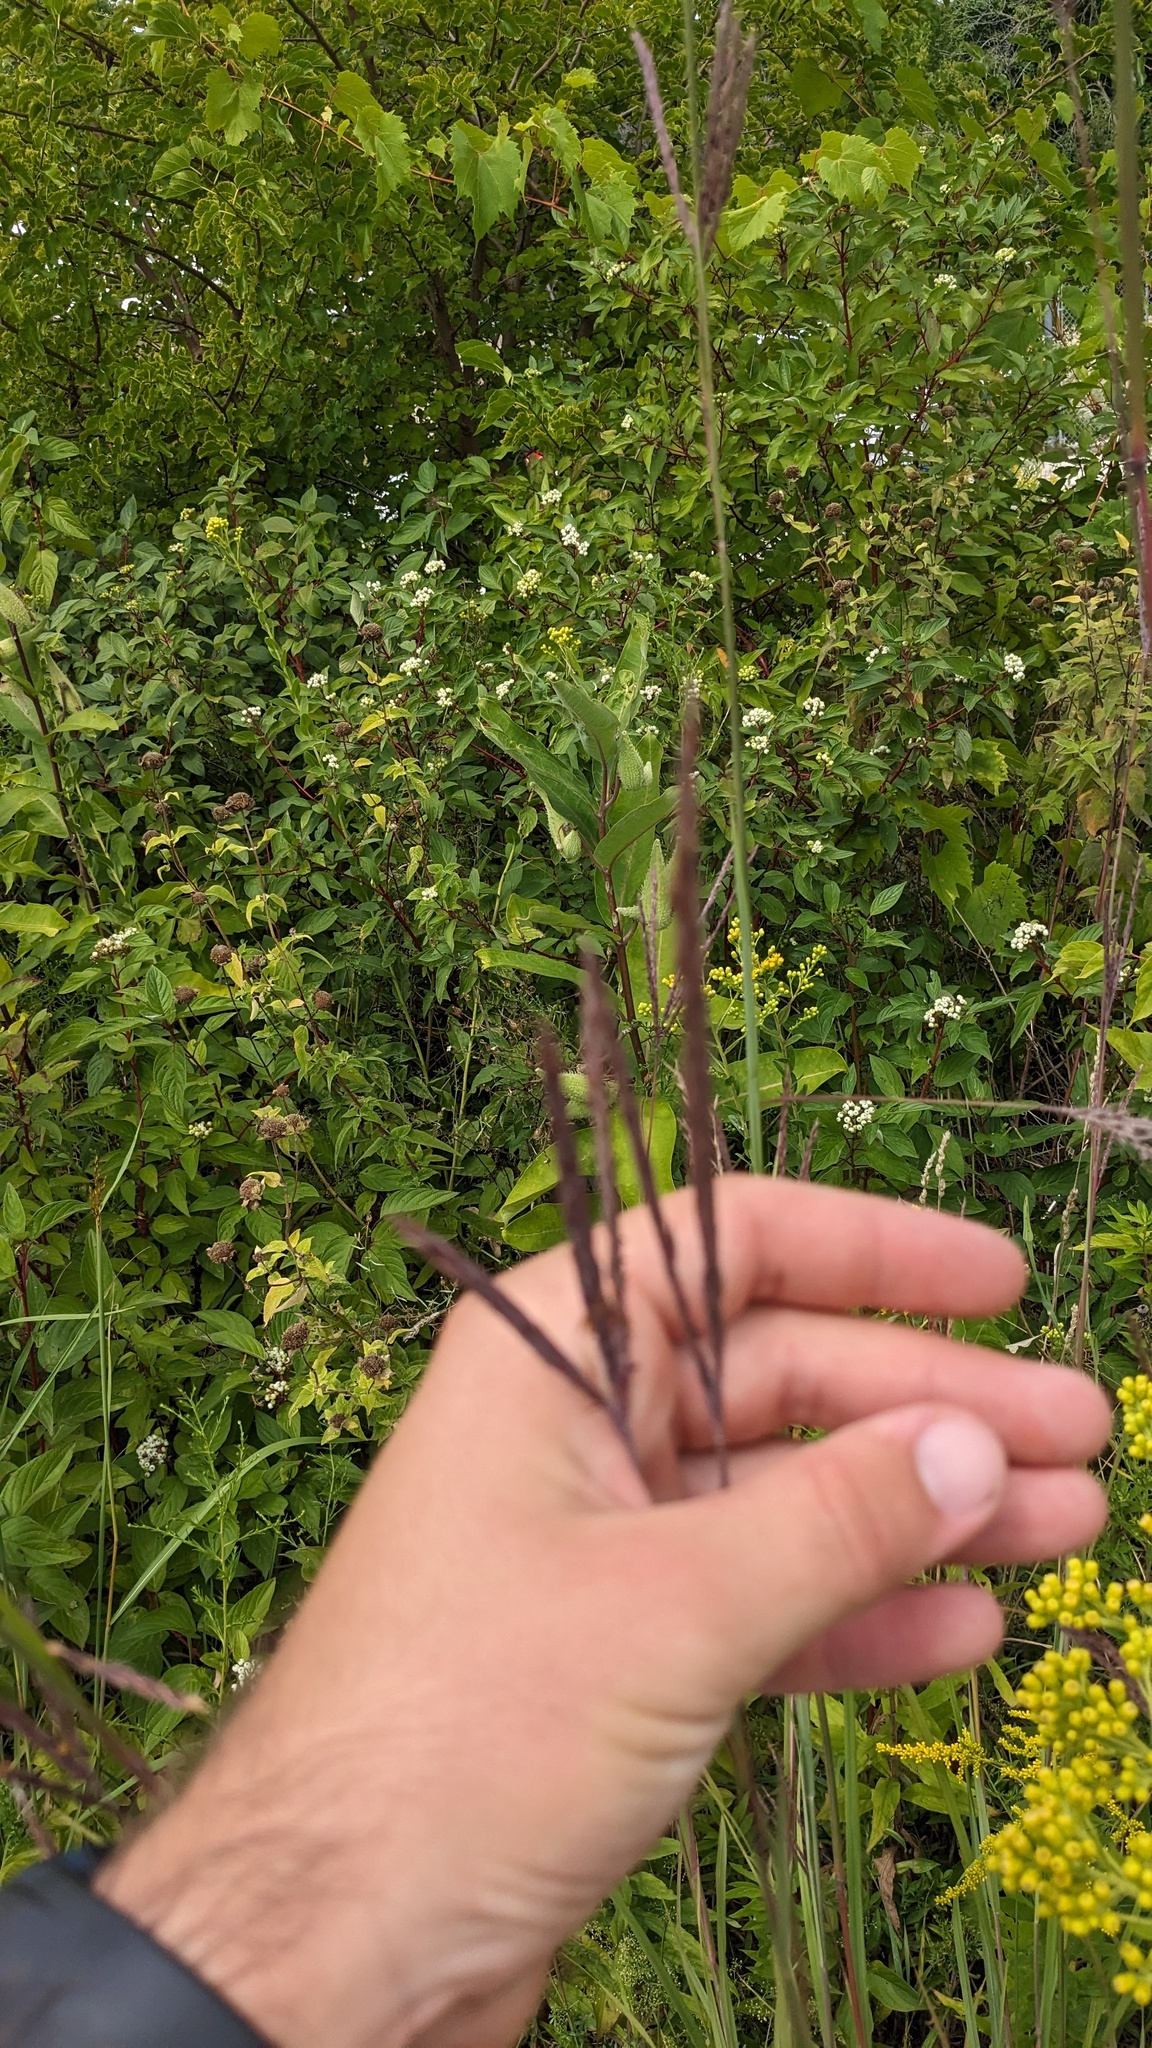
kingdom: Plantae
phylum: Tracheophyta
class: Liliopsida
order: Poales
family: Poaceae
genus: Andropogon
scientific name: Andropogon gerardi
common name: Big bluestem
